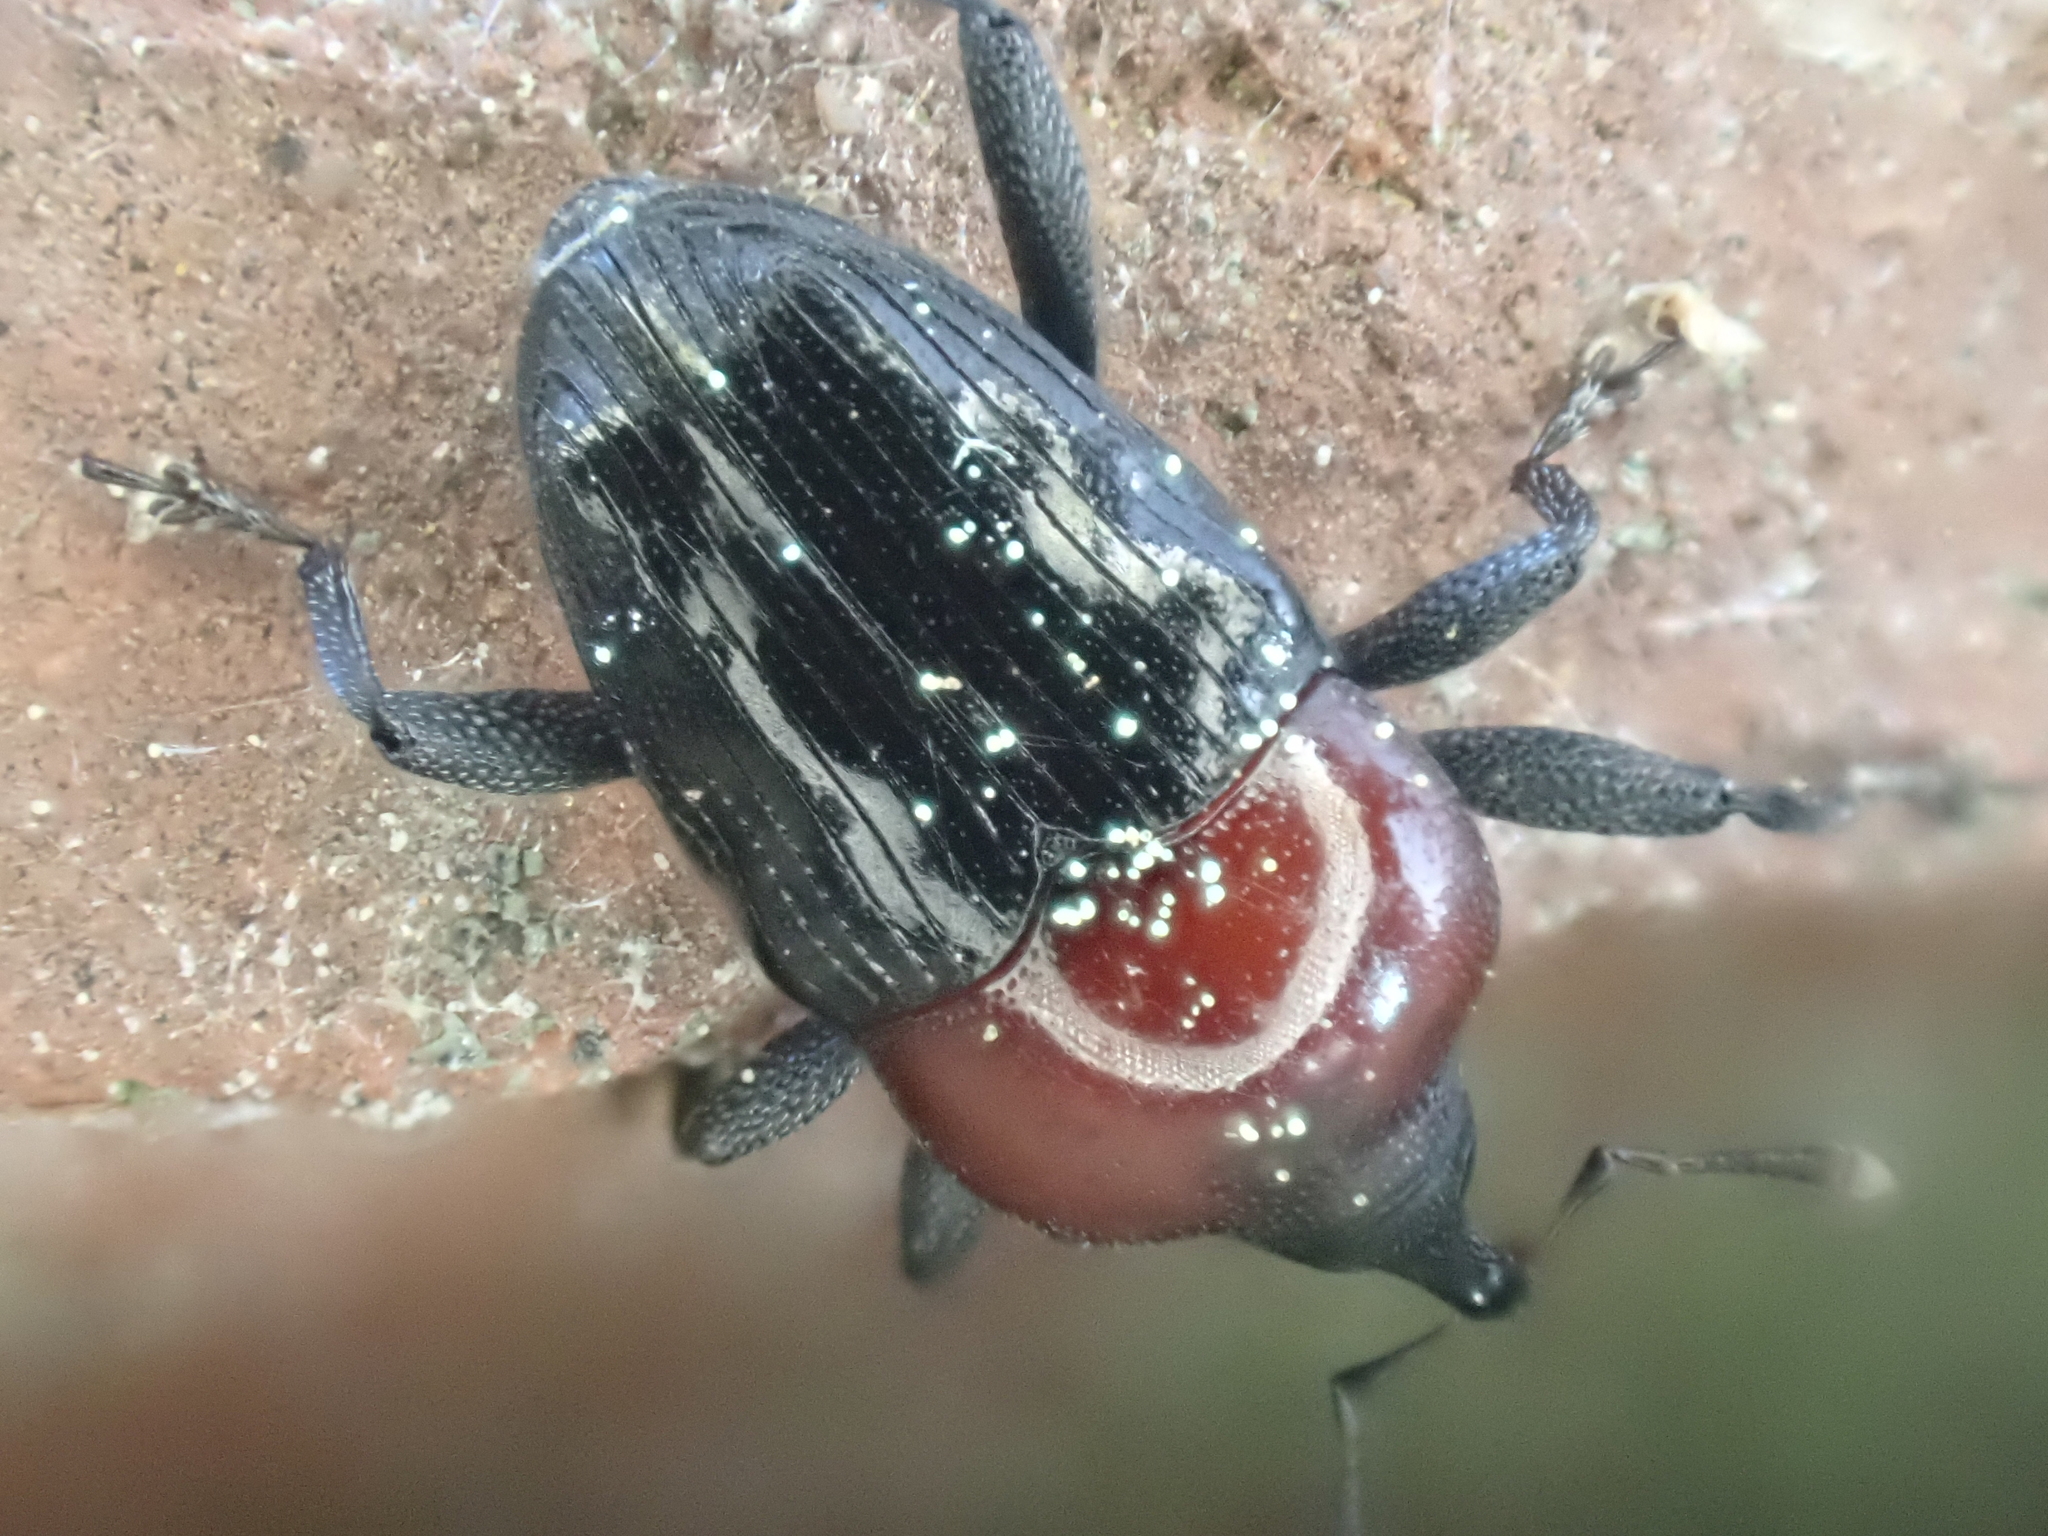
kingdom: Animalia
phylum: Arthropoda
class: Insecta
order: Coleoptera
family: Curculionidae
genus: Madarellus
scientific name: Madarellus undulatus
